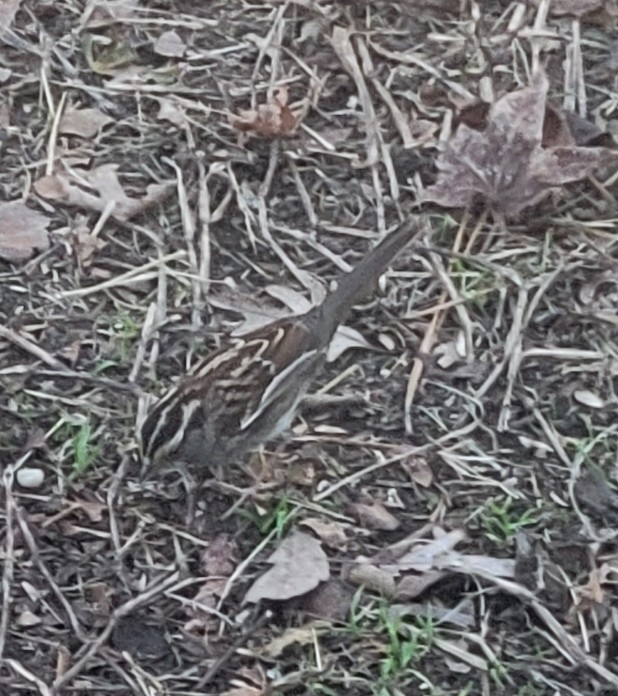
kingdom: Animalia
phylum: Chordata
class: Aves
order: Passeriformes
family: Passerellidae
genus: Zonotrichia
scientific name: Zonotrichia albicollis
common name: White-throated sparrow
